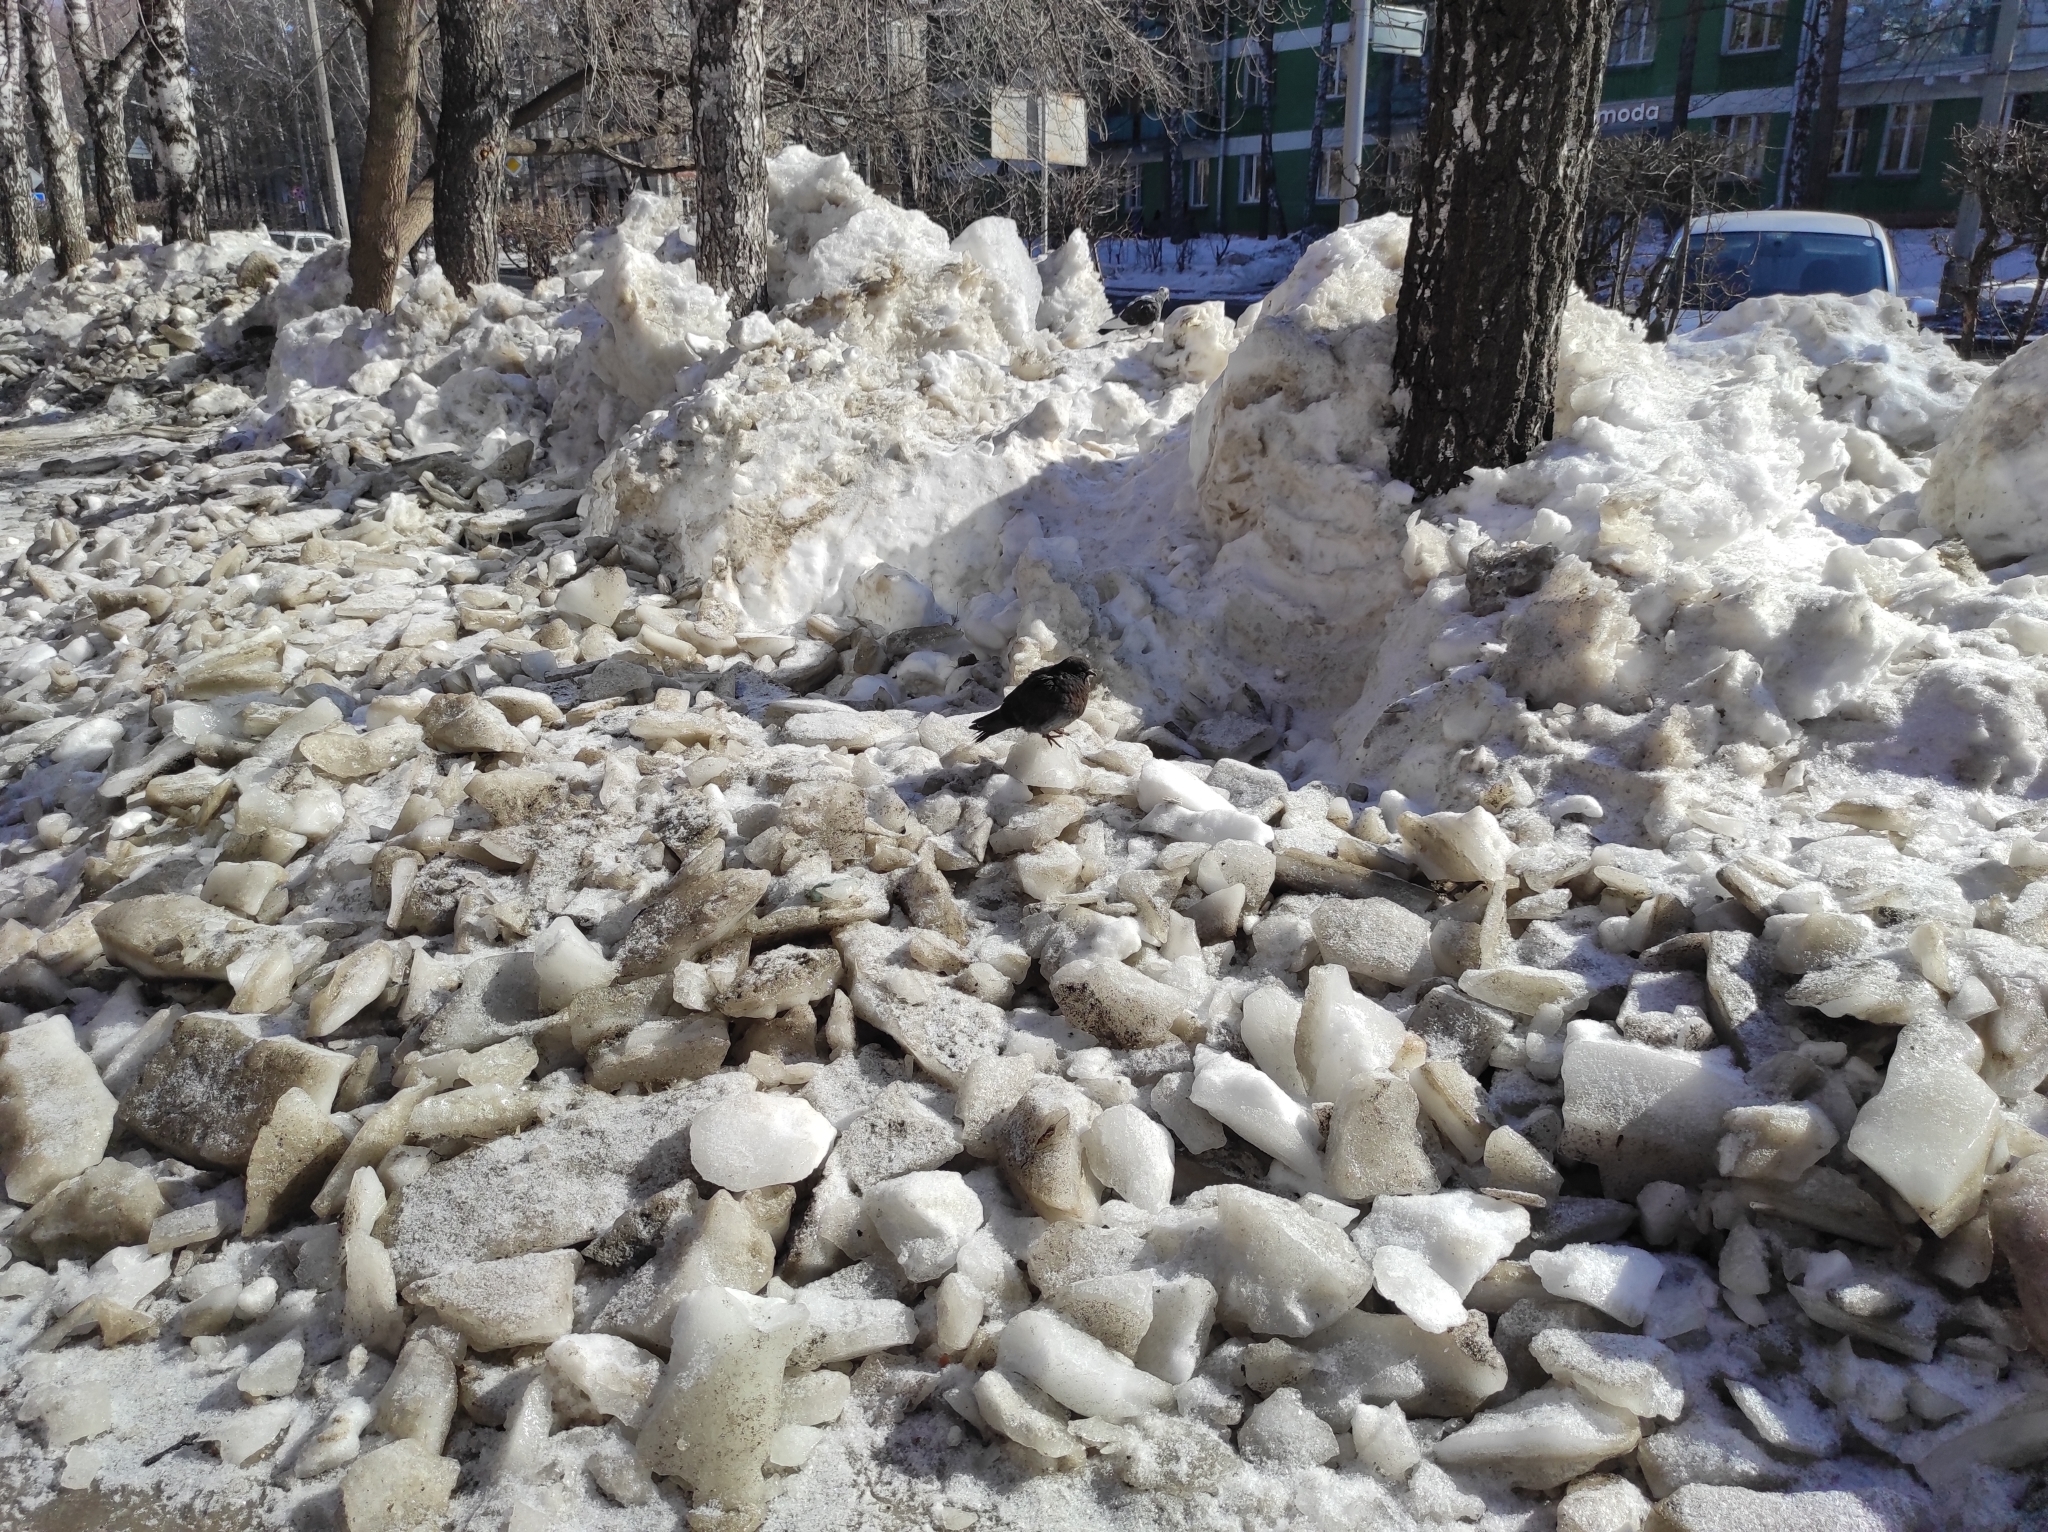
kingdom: Animalia
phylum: Chordata
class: Aves
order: Columbiformes
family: Columbidae
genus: Columba
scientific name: Columba livia
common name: Rock pigeon
